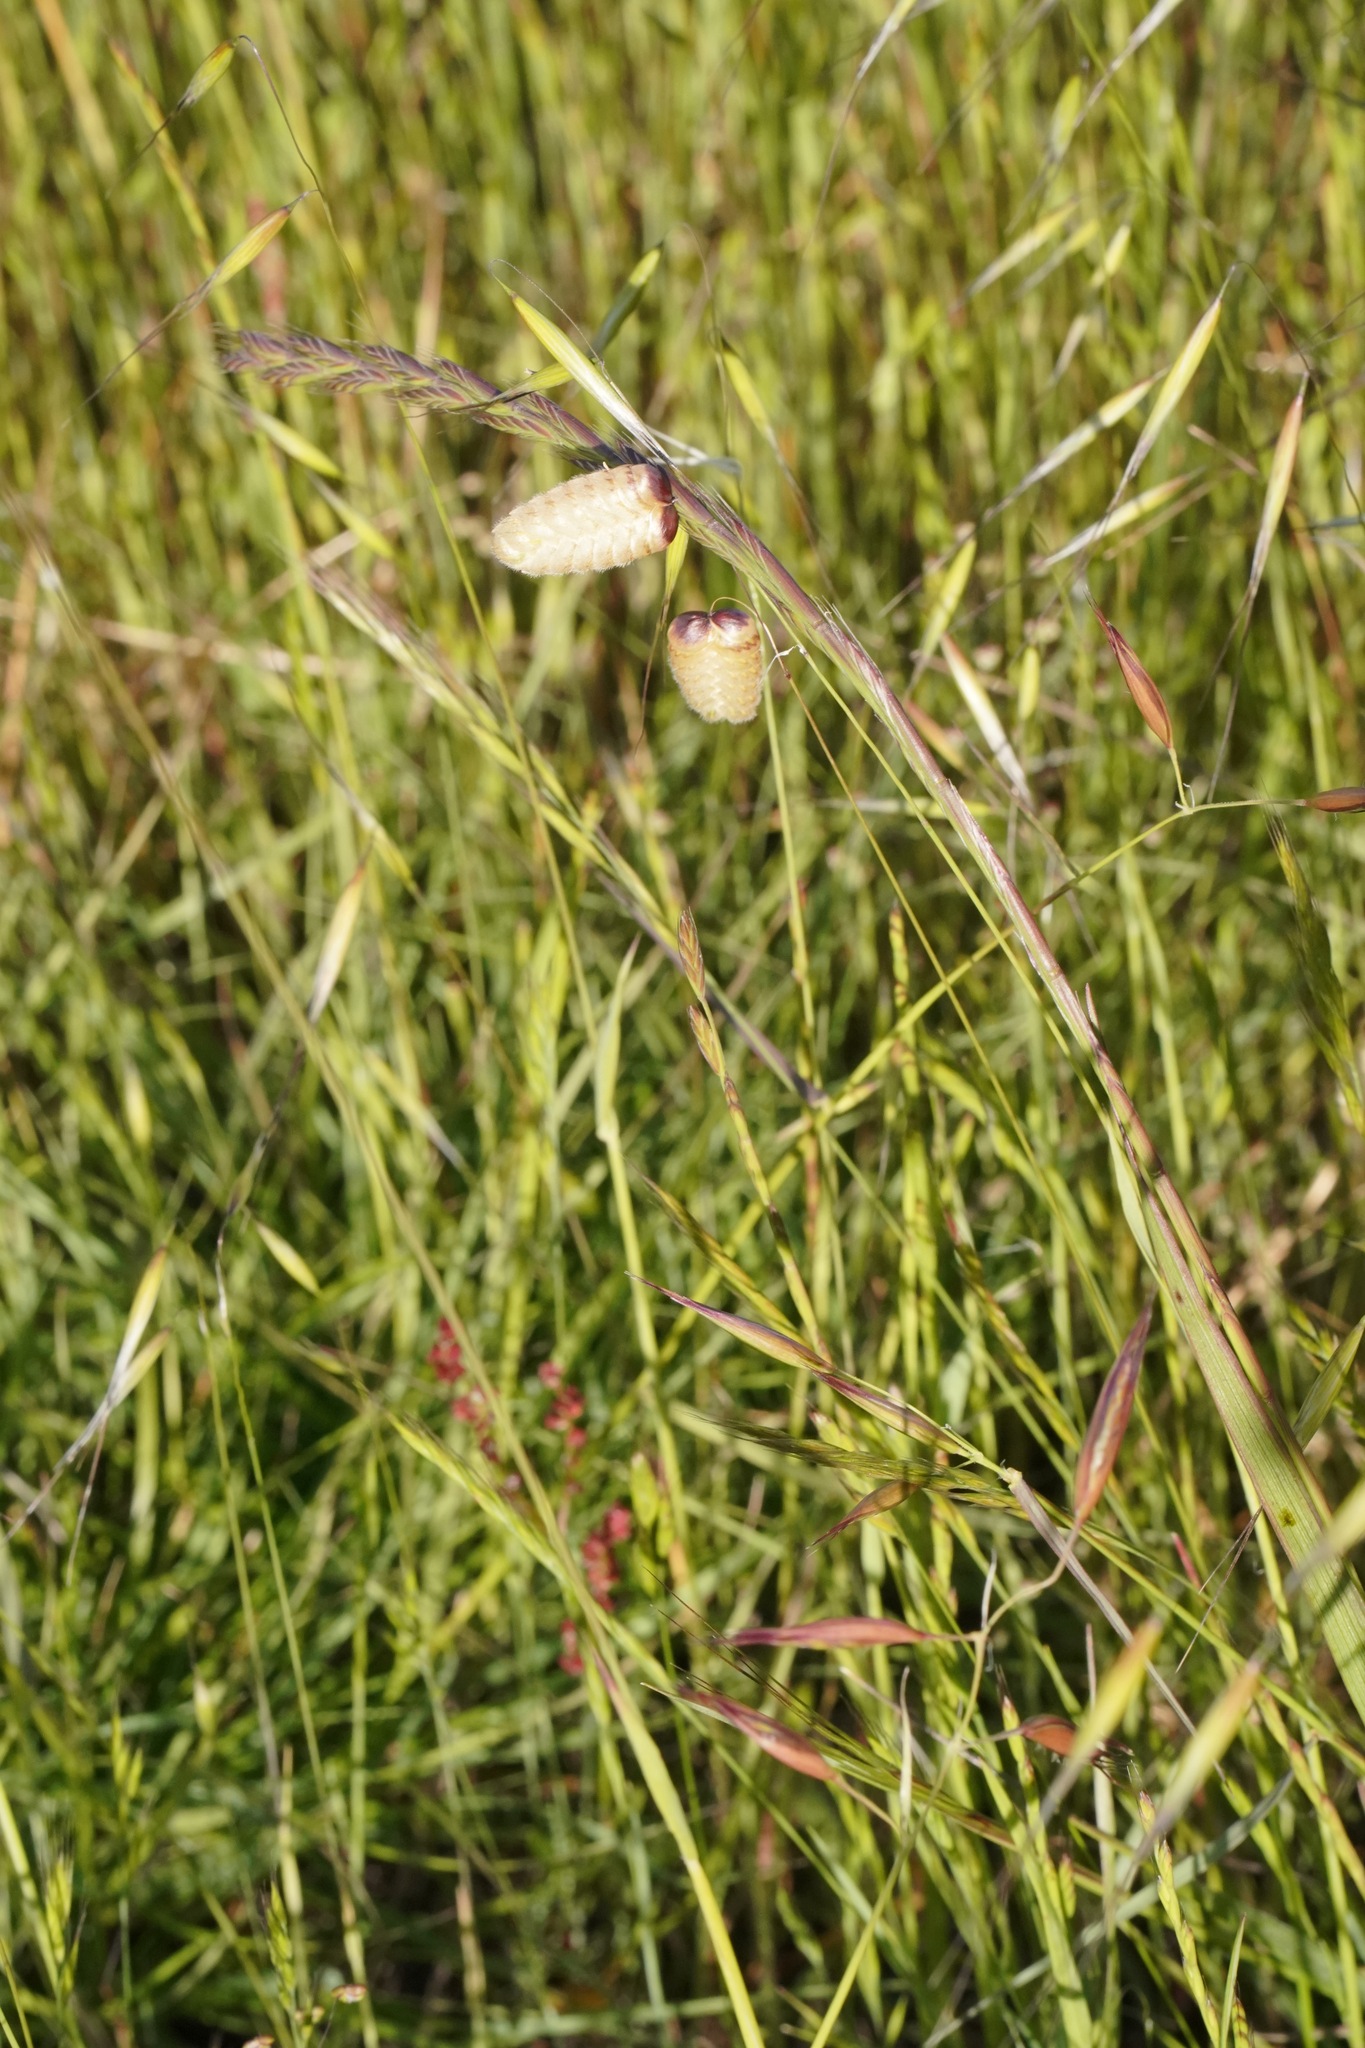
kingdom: Plantae
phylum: Tracheophyta
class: Liliopsida
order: Poales
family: Poaceae
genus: Briza
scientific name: Briza maxima
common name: Big quakinggrass
